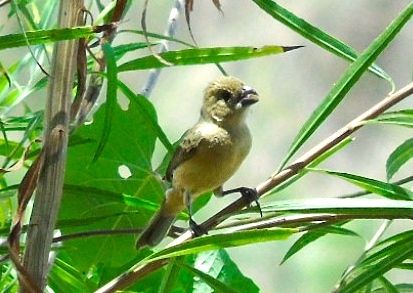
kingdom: Animalia
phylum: Chordata
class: Aves
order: Passeriformes
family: Thraupidae
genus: Sporophila
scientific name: Sporophila torqueola
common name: White-collared seedeater
